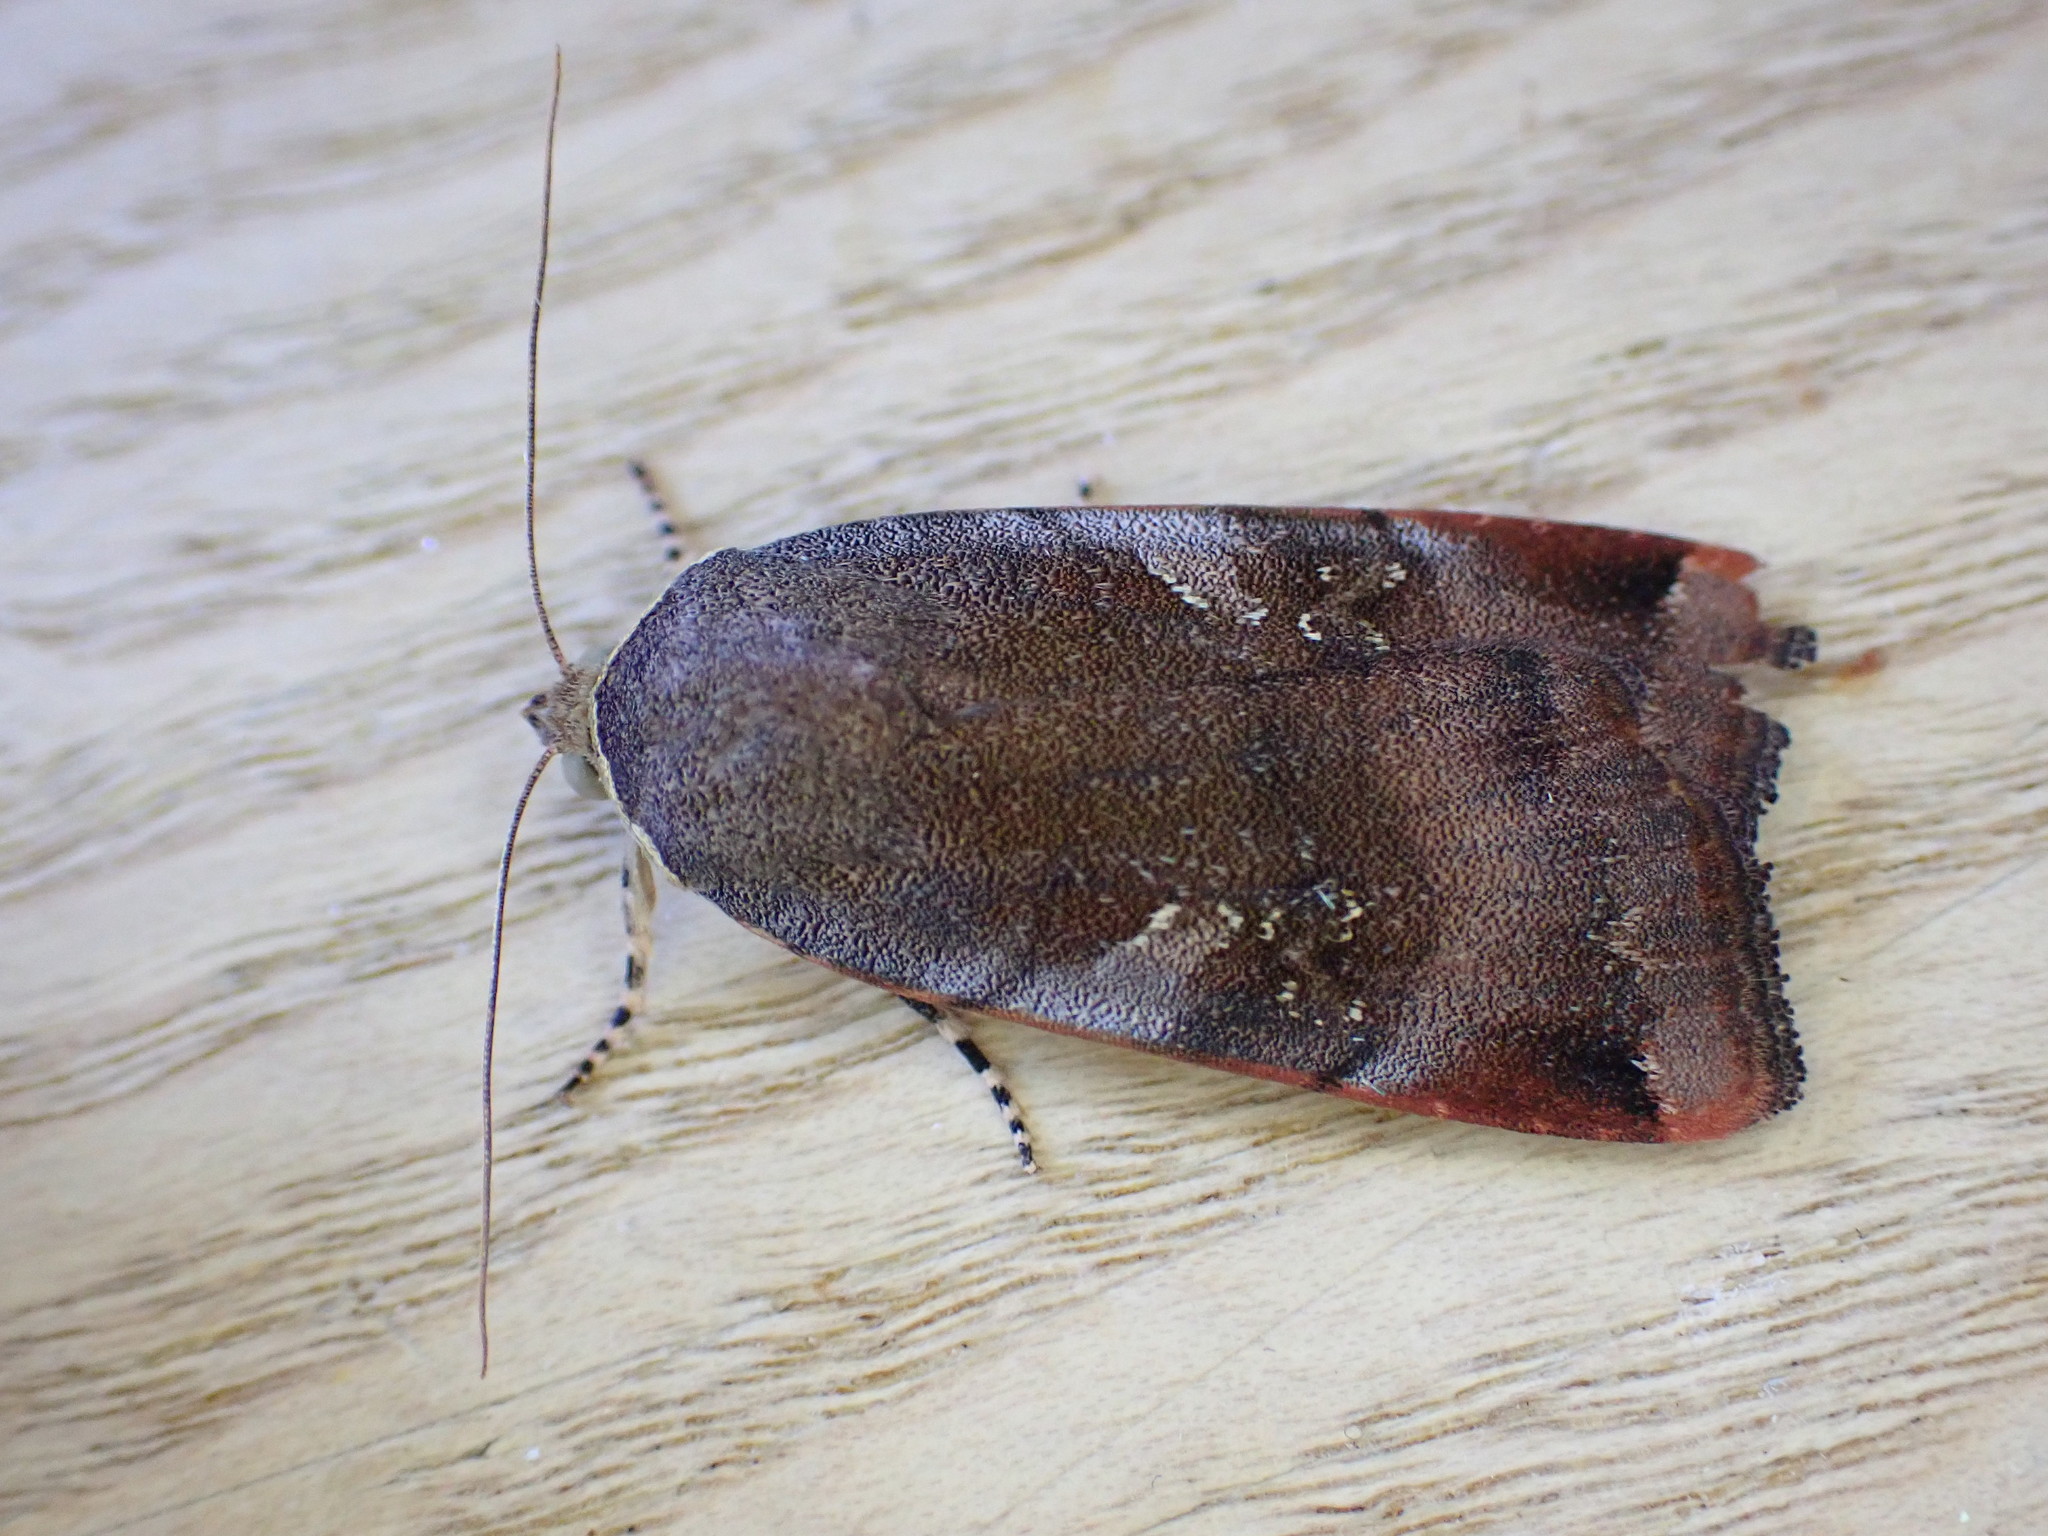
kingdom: Animalia
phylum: Arthropoda
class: Insecta
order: Lepidoptera
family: Noctuidae
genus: Noctua
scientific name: Noctua janthe
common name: Lesser broad-bordered yellow underwing
